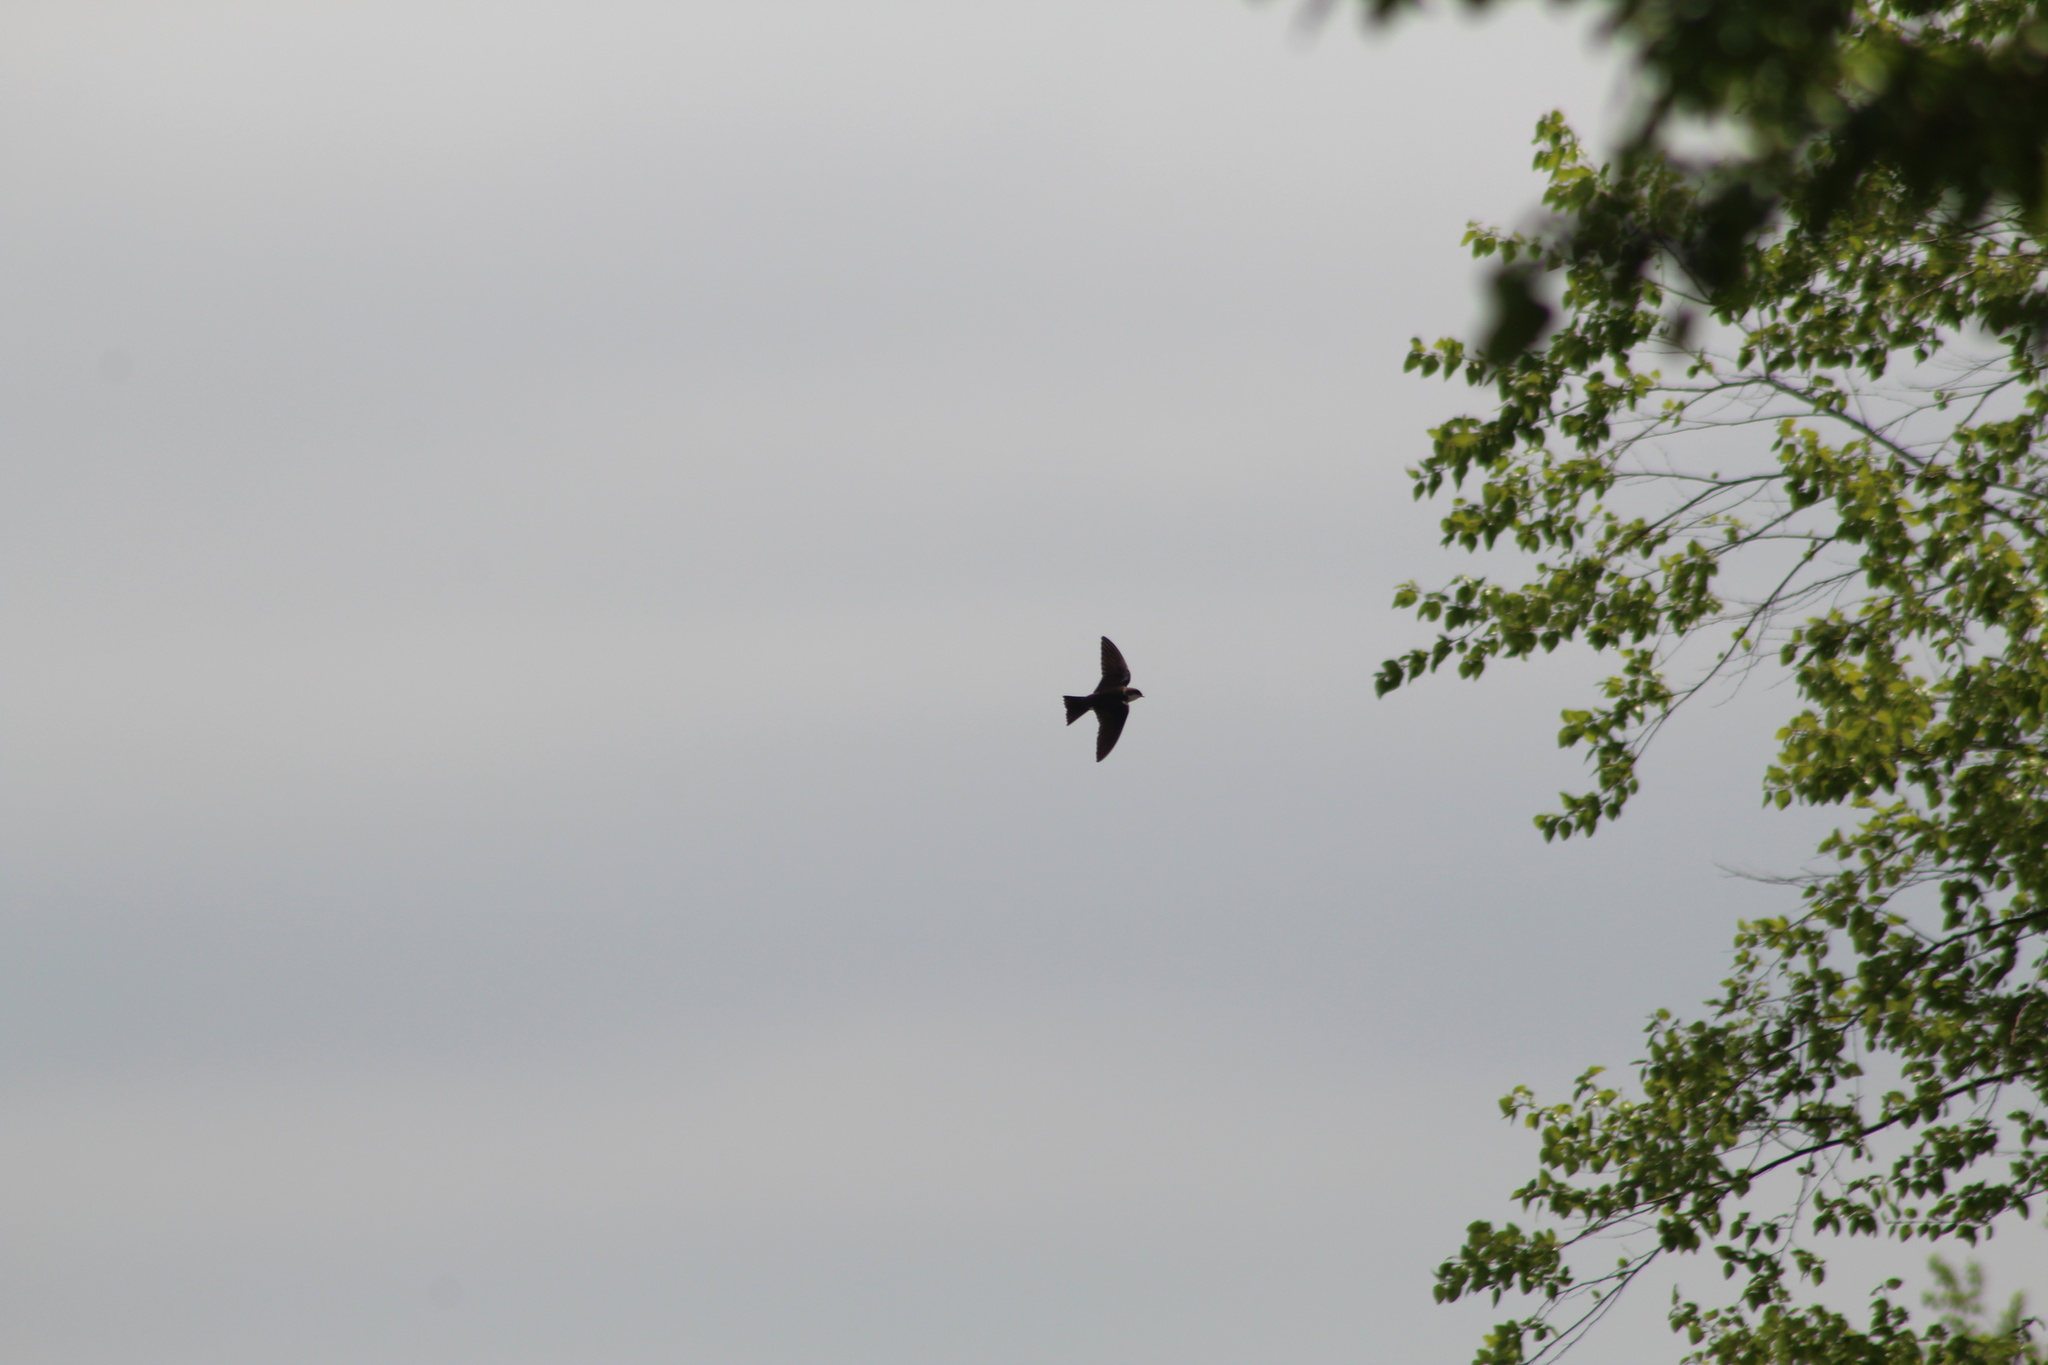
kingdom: Animalia
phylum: Chordata
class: Aves
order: Passeriformes
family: Hirundinidae
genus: Tachycineta
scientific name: Tachycineta bicolor
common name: Tree swallow
